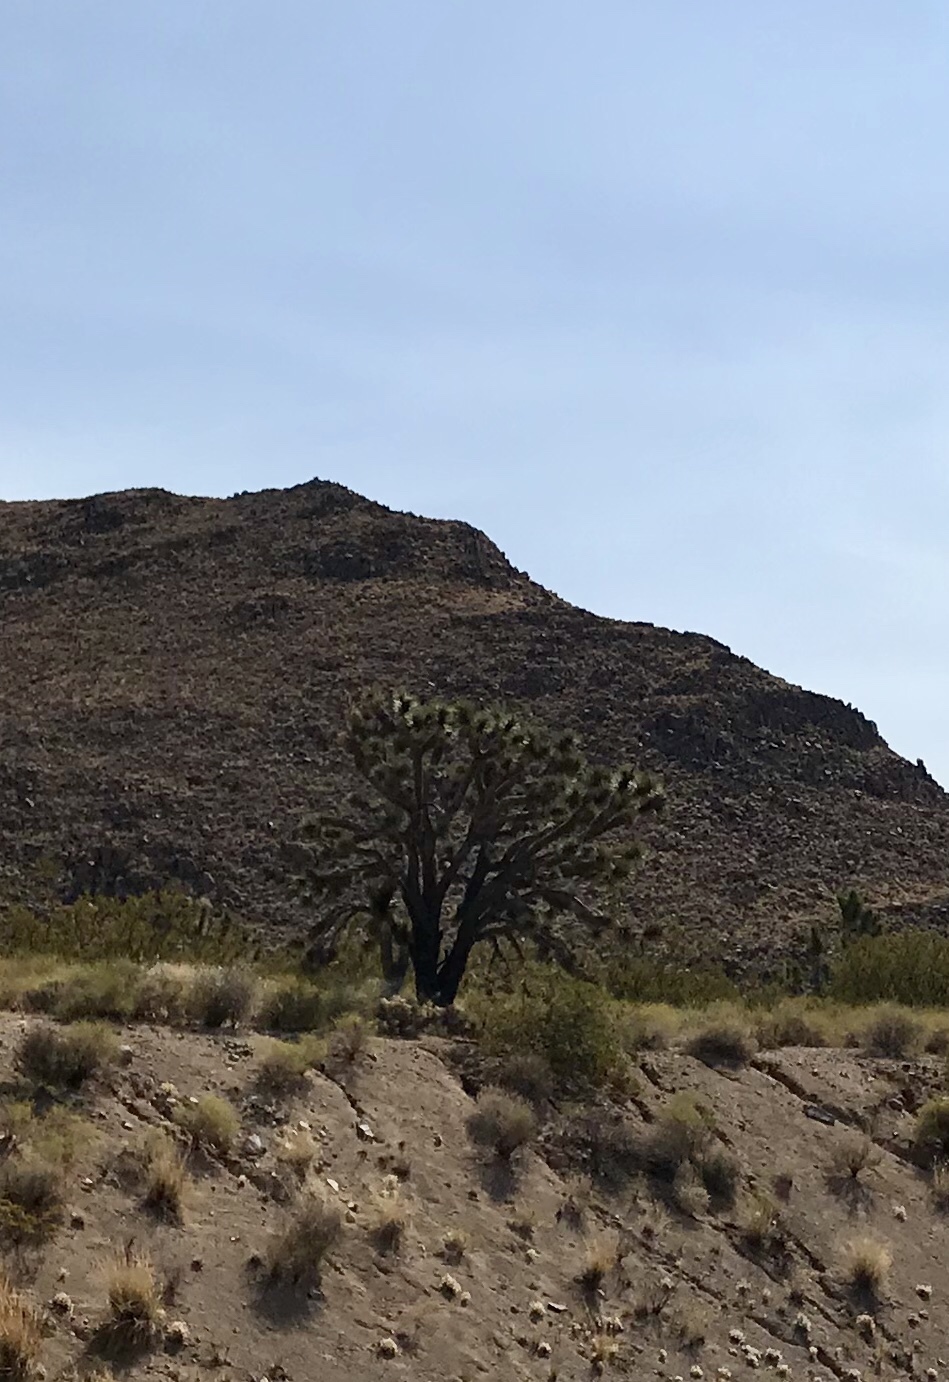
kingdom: Plantae
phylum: Tracheophyta
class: Liliopsida
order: Asparagales
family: Asparagaceae
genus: Yucca
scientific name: Yucca brevifolia
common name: Joshua tree
